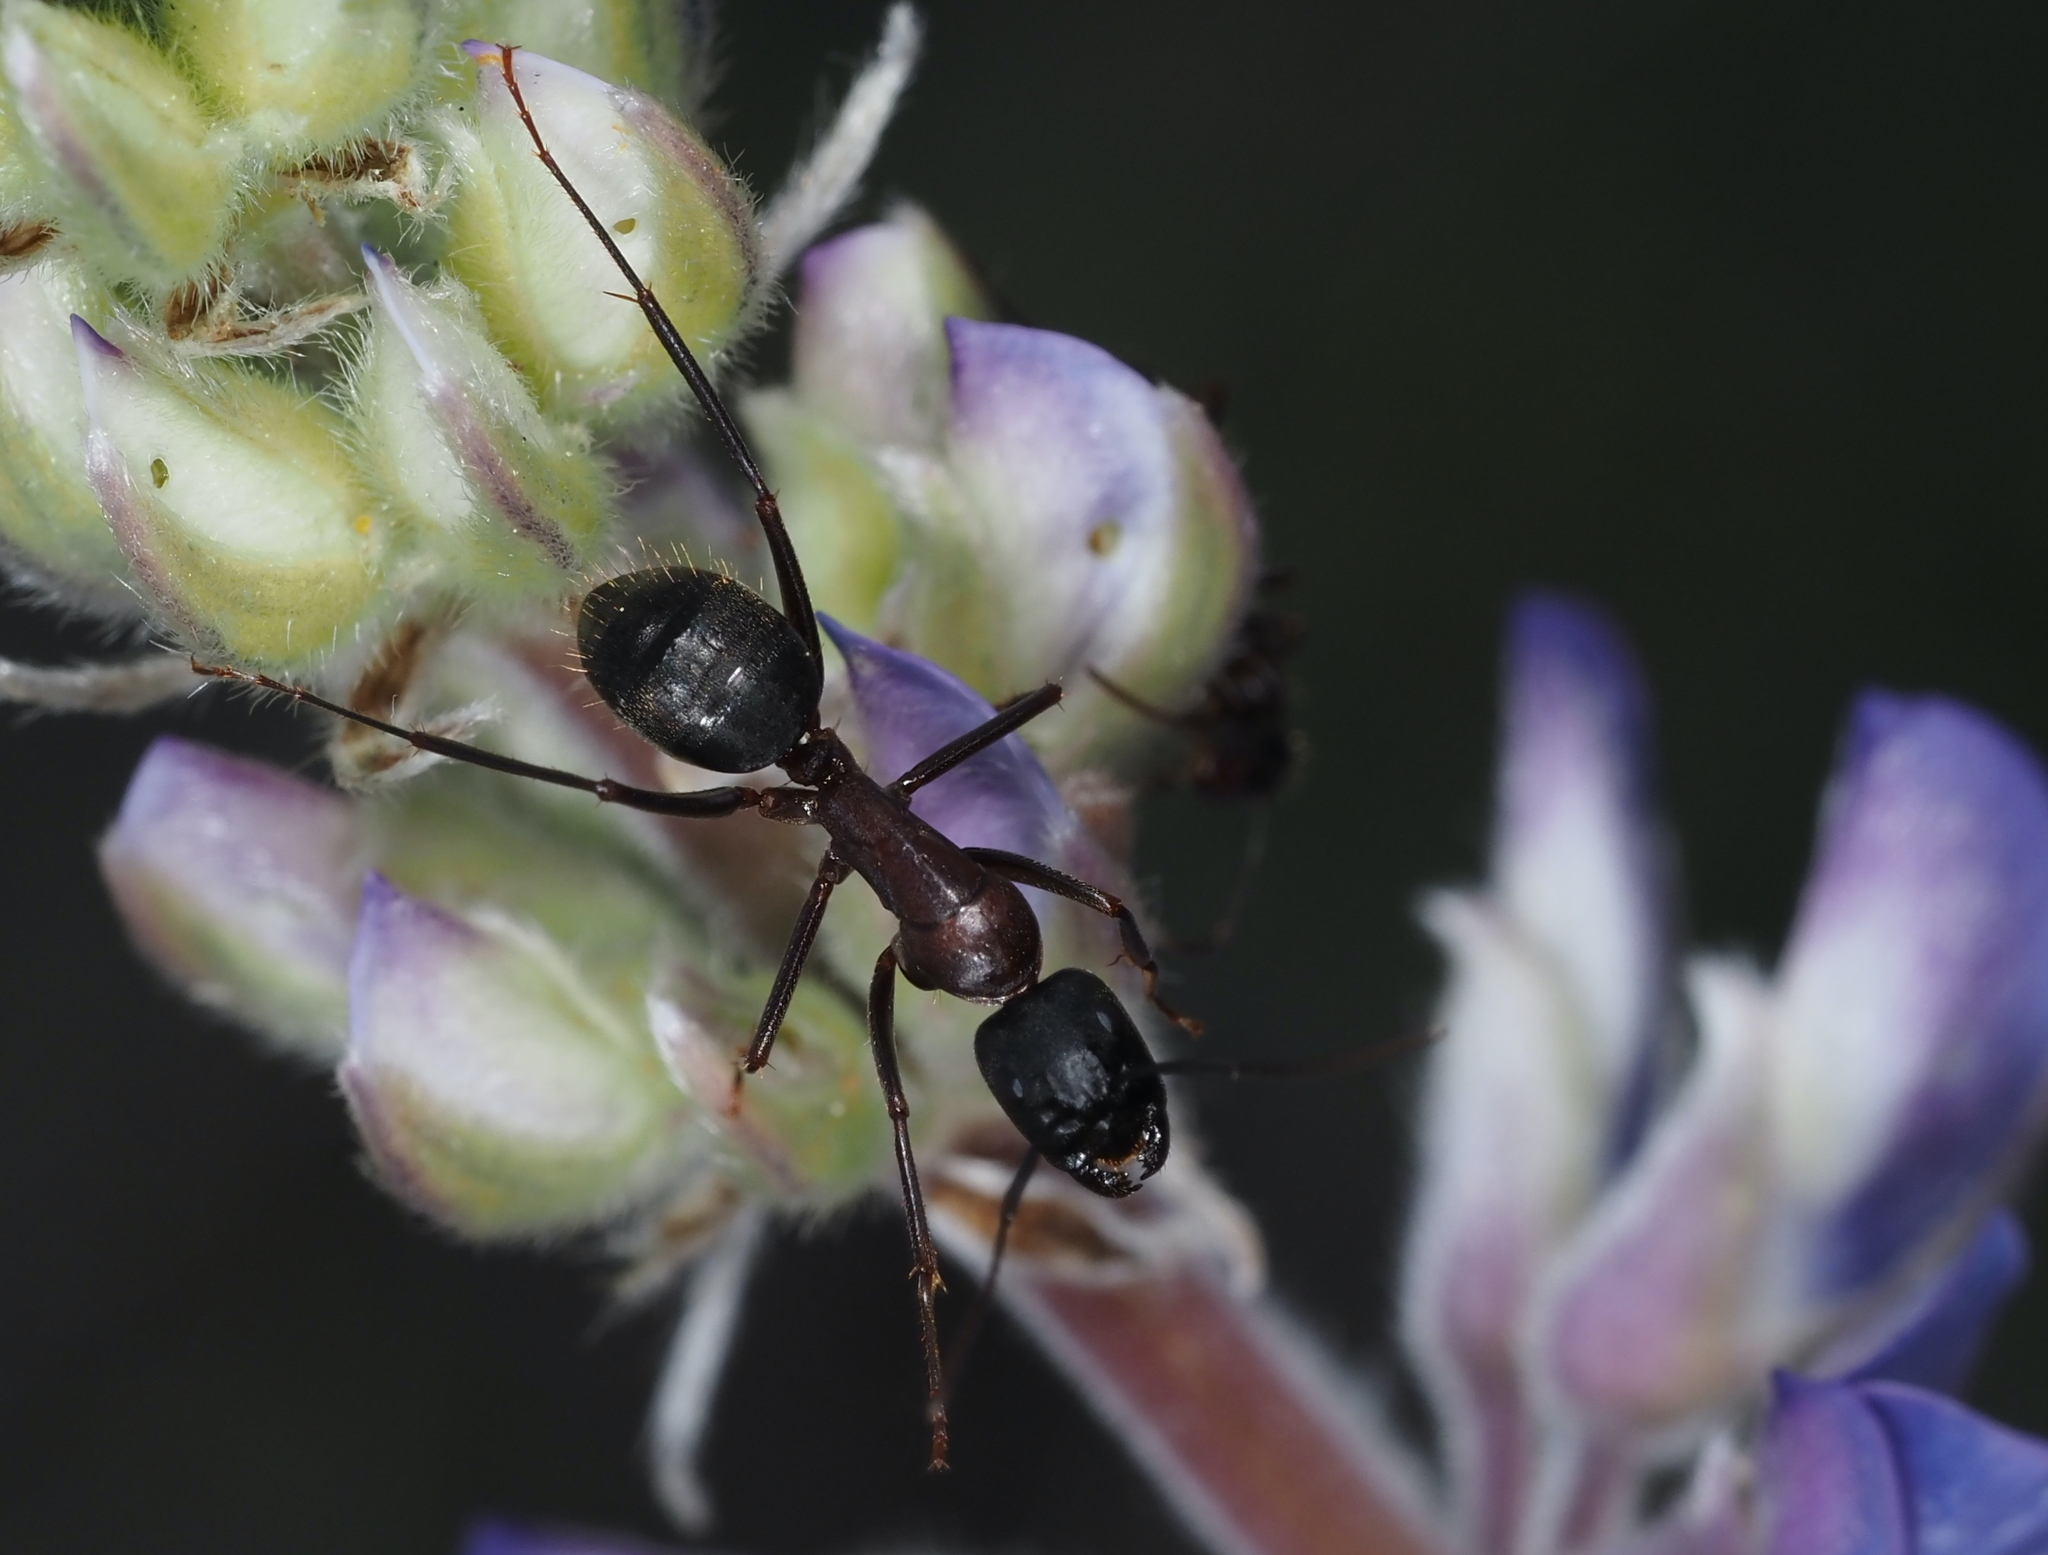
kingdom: Animalia
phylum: Arthropoda
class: Insecta
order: Hymenoptera
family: Formicidae
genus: Camponotus
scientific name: Camponotus vicinus
